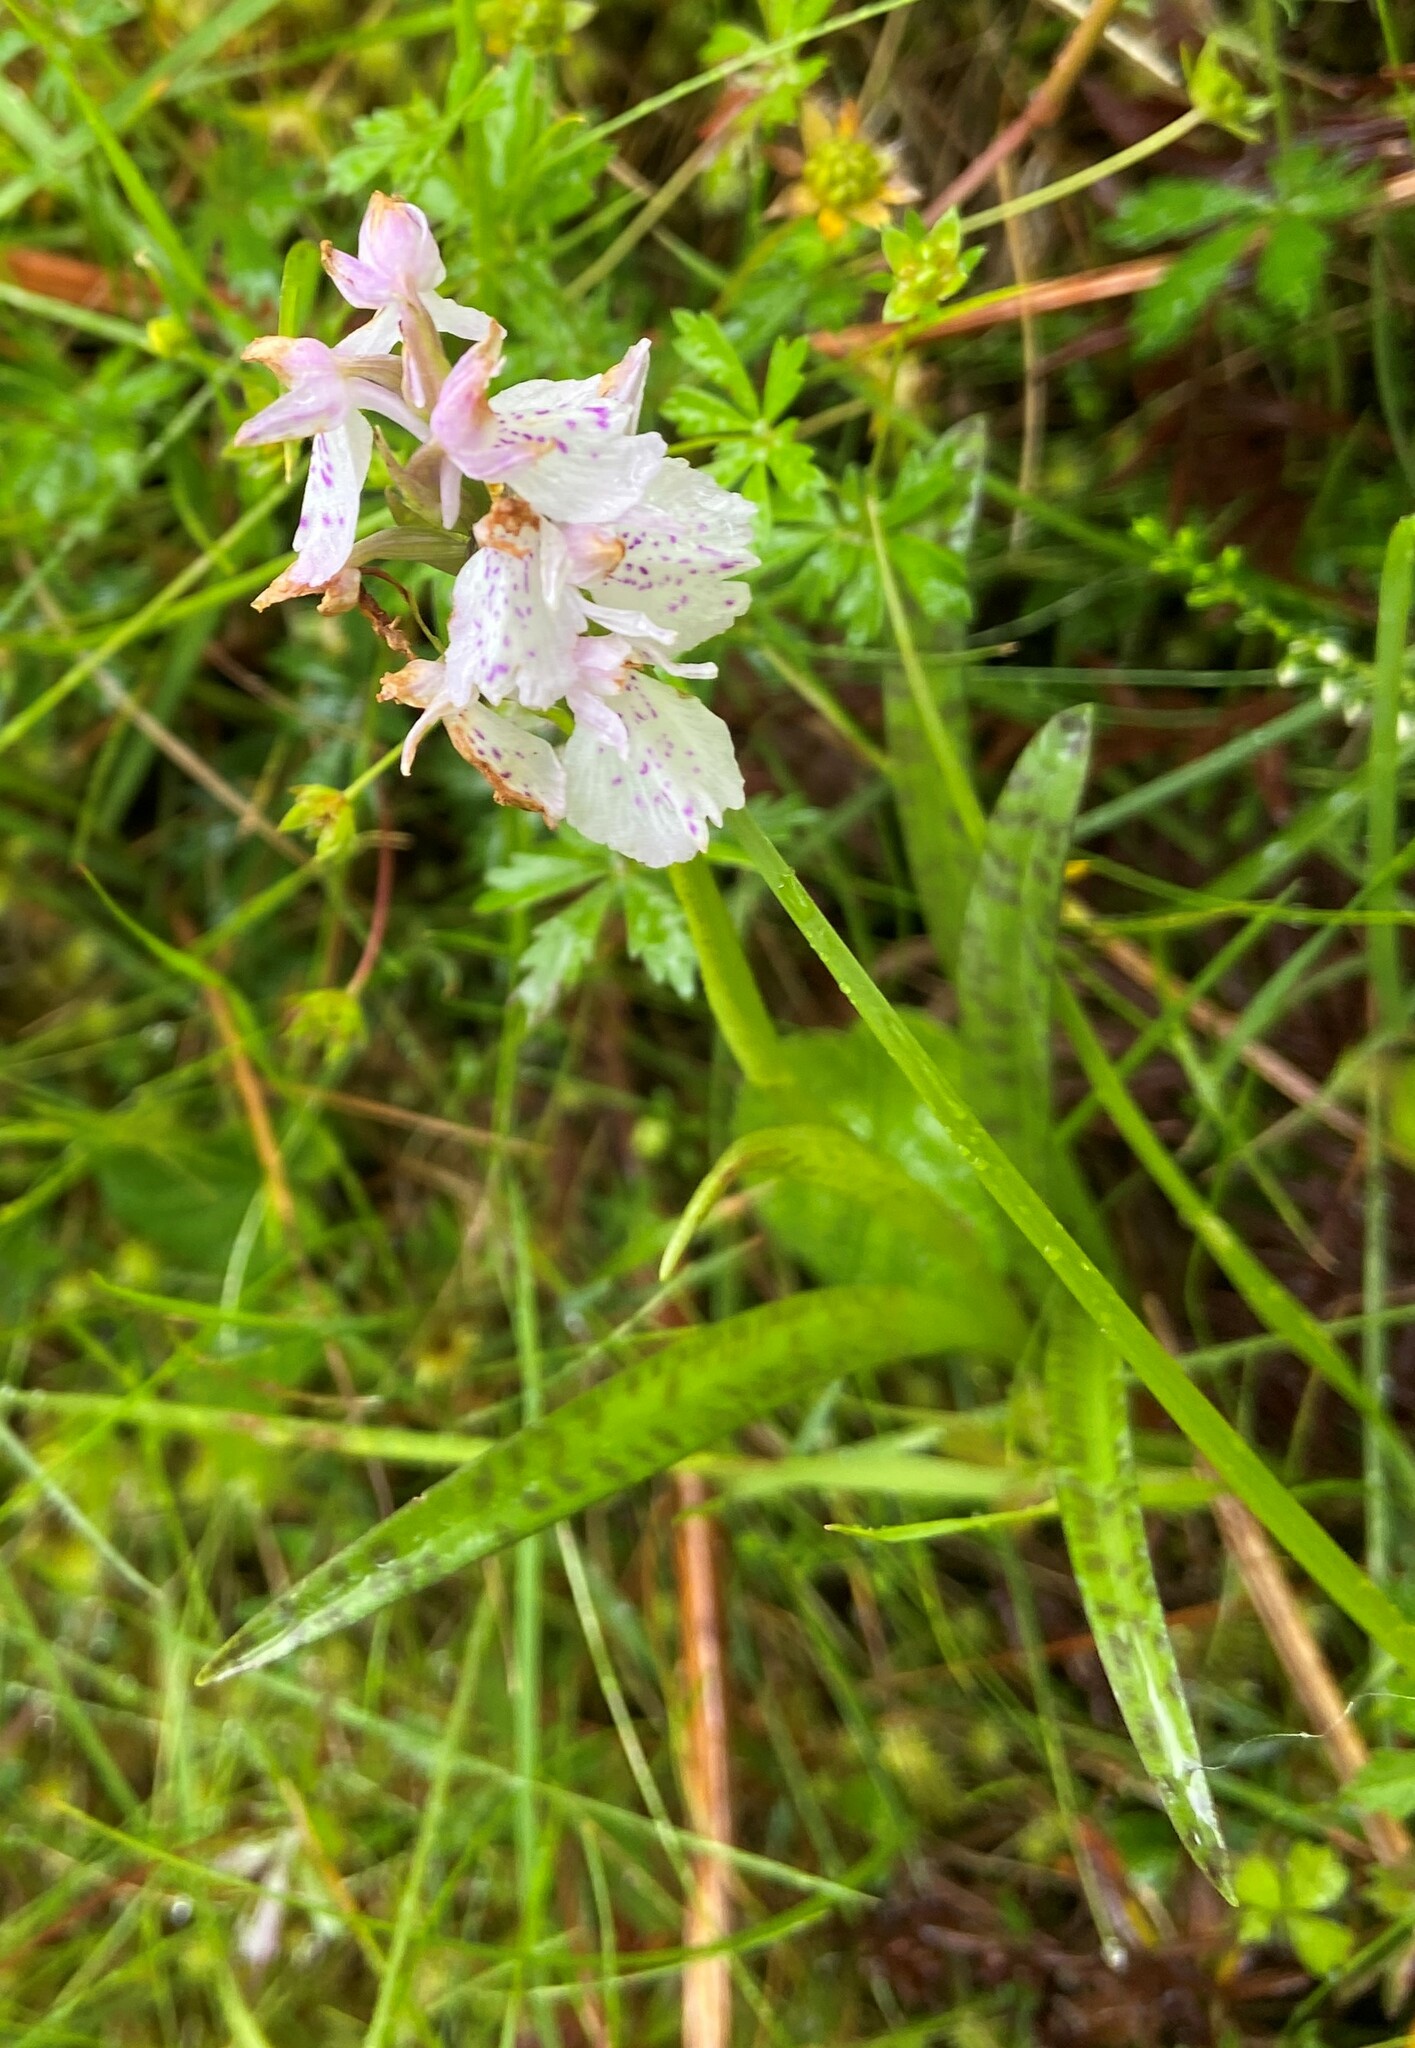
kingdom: Plantae
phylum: Tracheophyta
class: Liliopsida
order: Asparagales
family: Orchidaceae
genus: Dactylorhiza
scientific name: Dactylorhiza maculata
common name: Heath spotted-orchid
